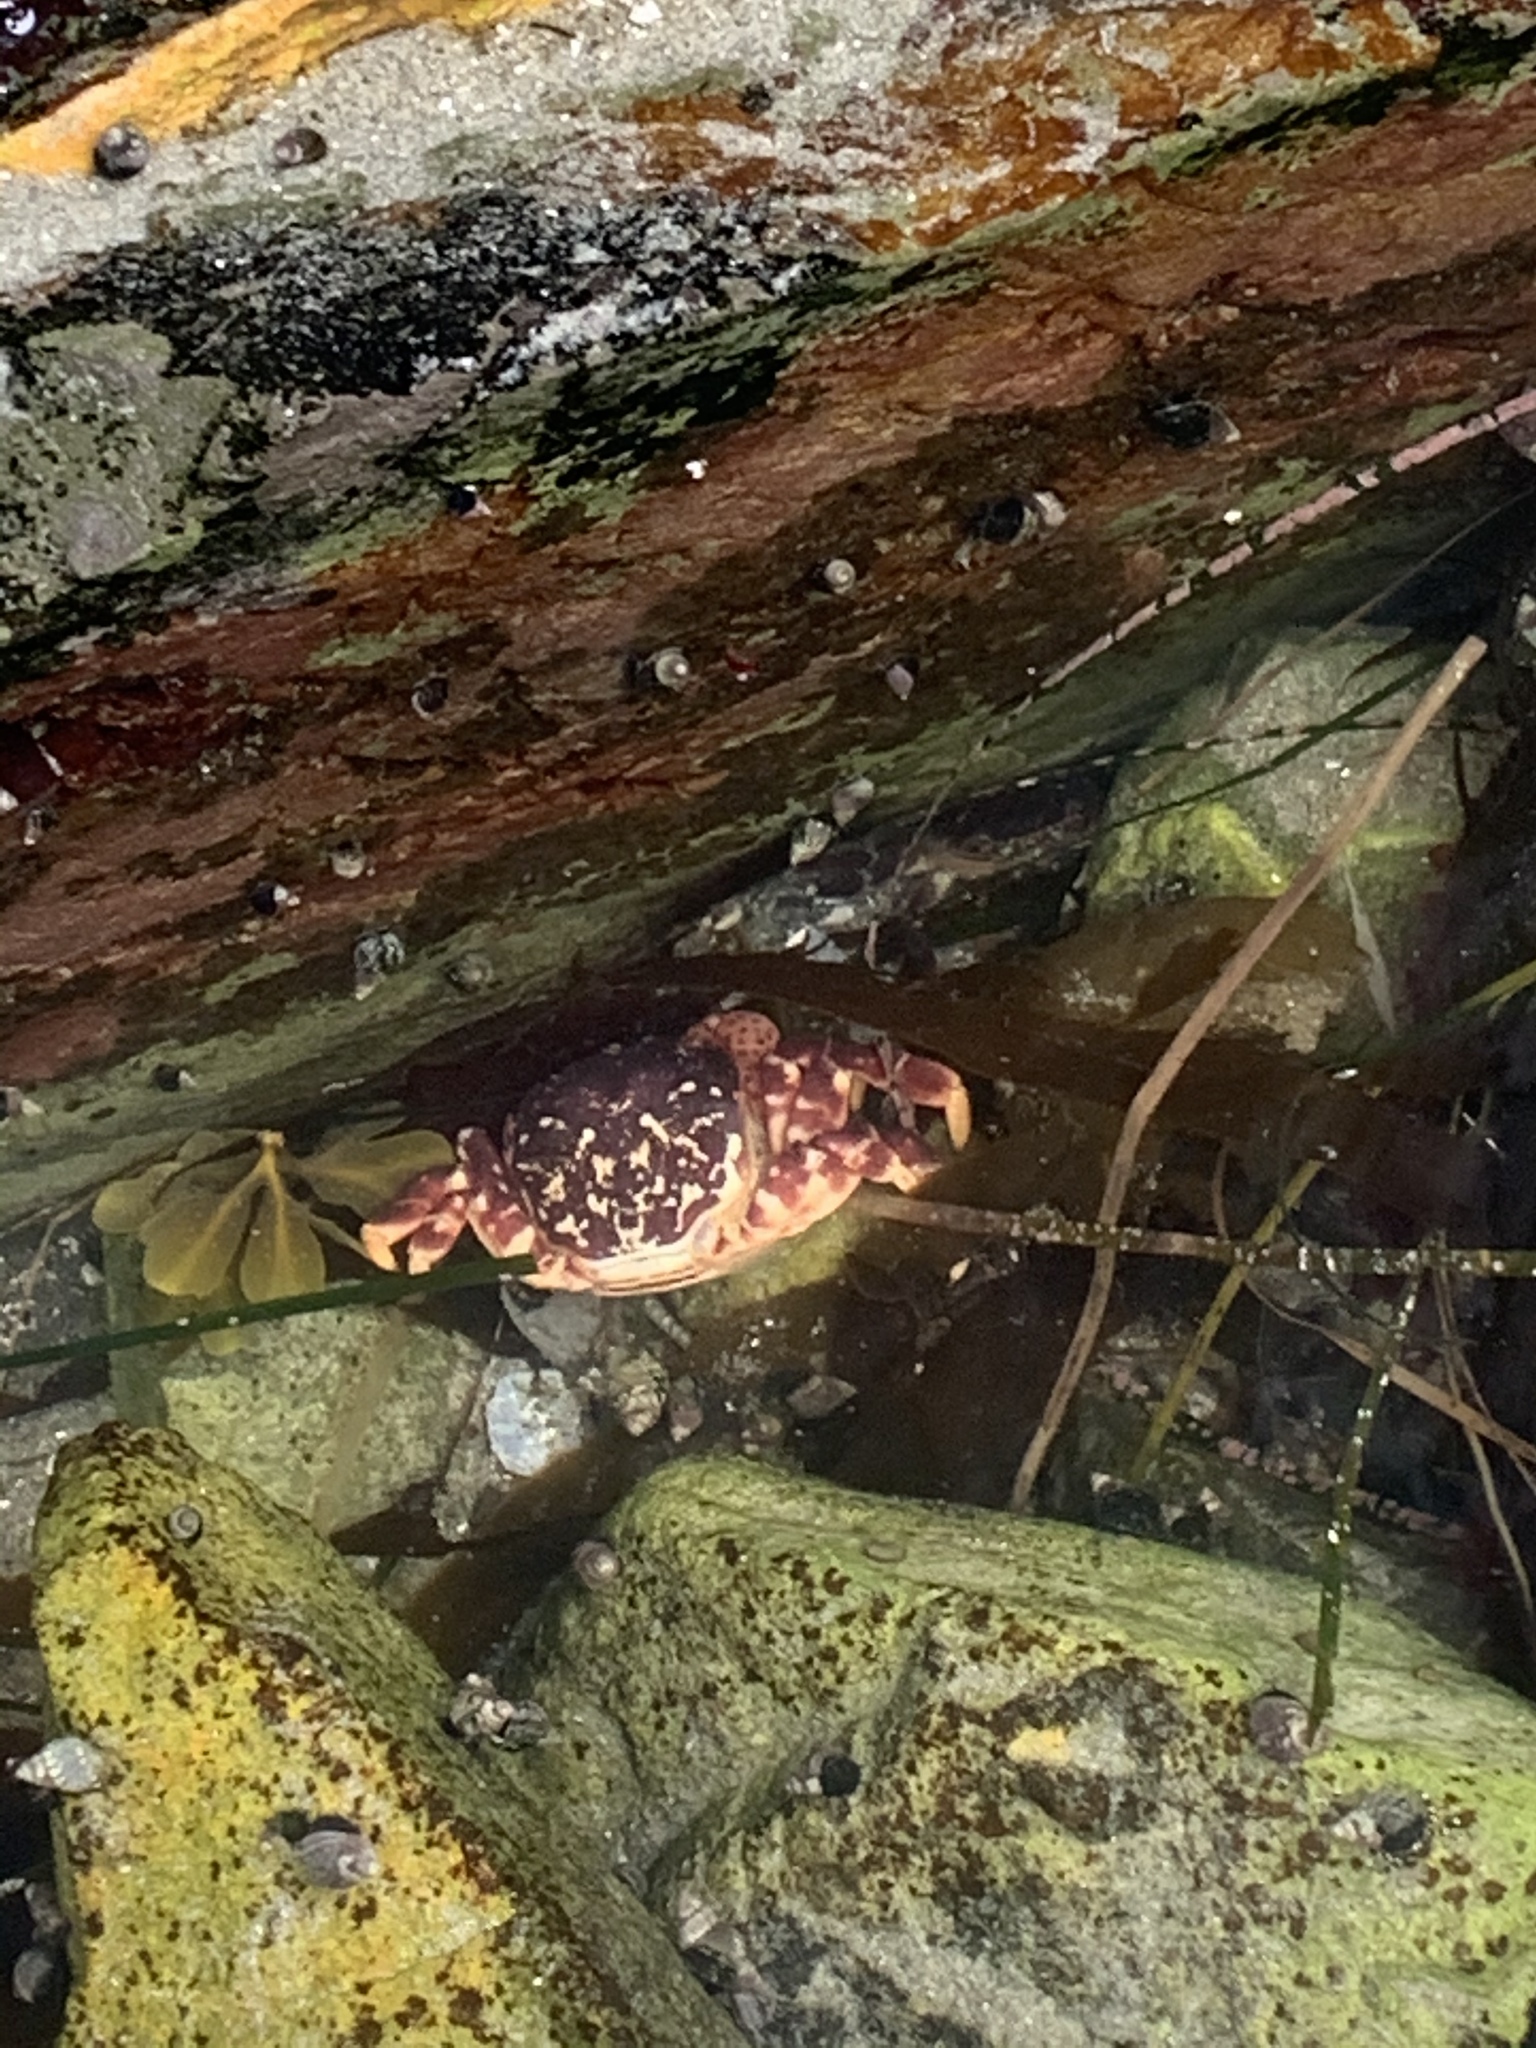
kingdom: Animalia
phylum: Arthropoda
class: Malacostraca
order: Decapoda
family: Varunidae
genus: Hemigrapsus
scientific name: Hemigrapsus nudus
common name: Purple shore crab
